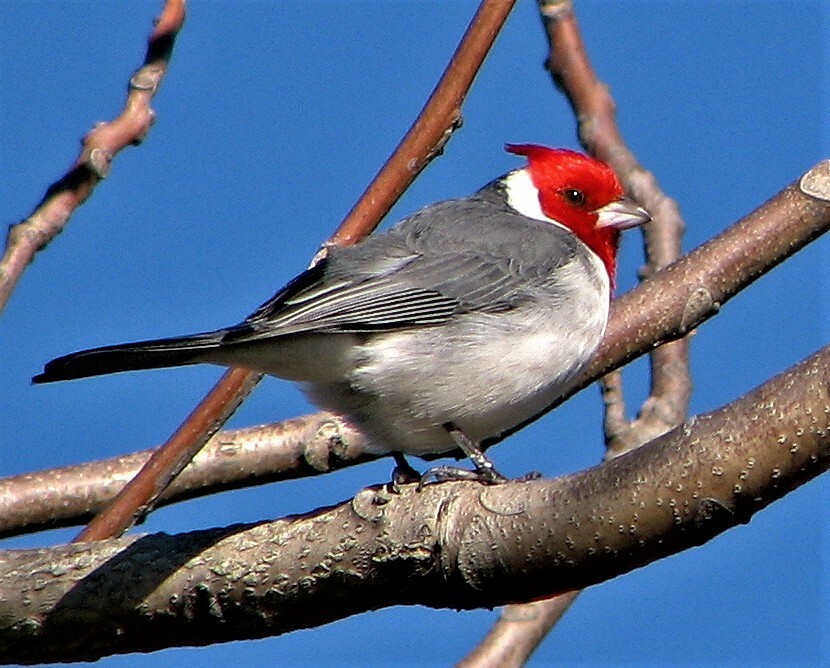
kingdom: Animalia
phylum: Chordata
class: Aves
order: Passeriformes
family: Thraupidae
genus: Paroaria
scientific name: Paroaria coronata
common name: Red-crested cardinal
